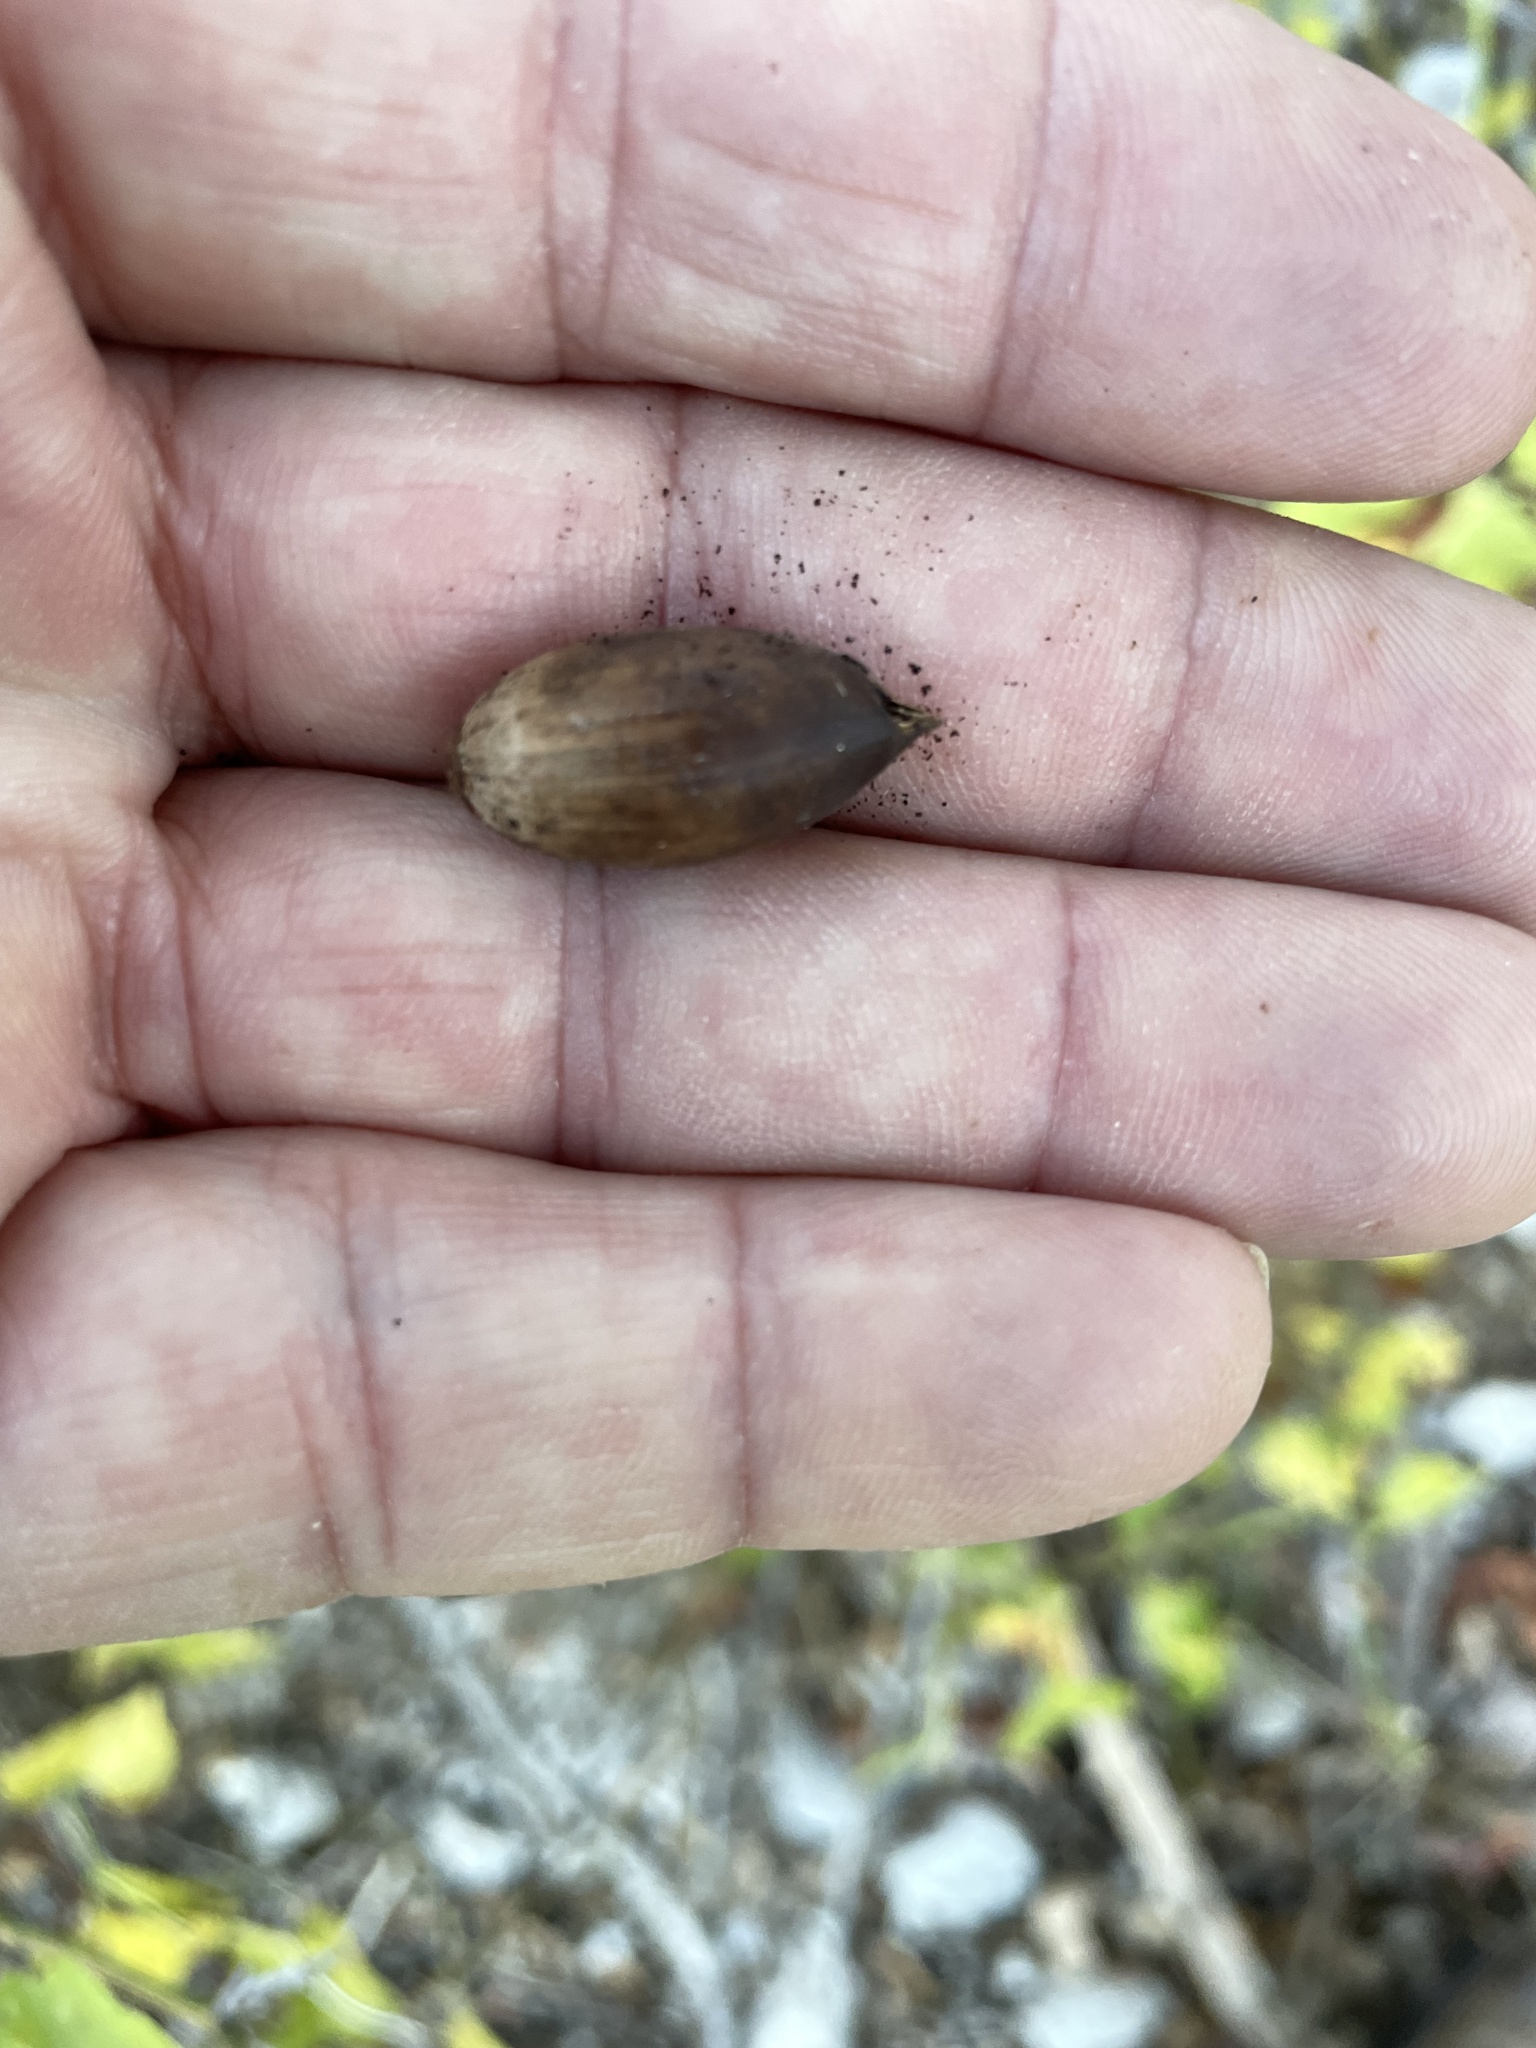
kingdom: Plantae
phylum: Tracheophyta
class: Magnoliopsida
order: Fagales
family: Fagaceae
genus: Quercus
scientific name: Quercus fusiformis
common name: Texas live oak
